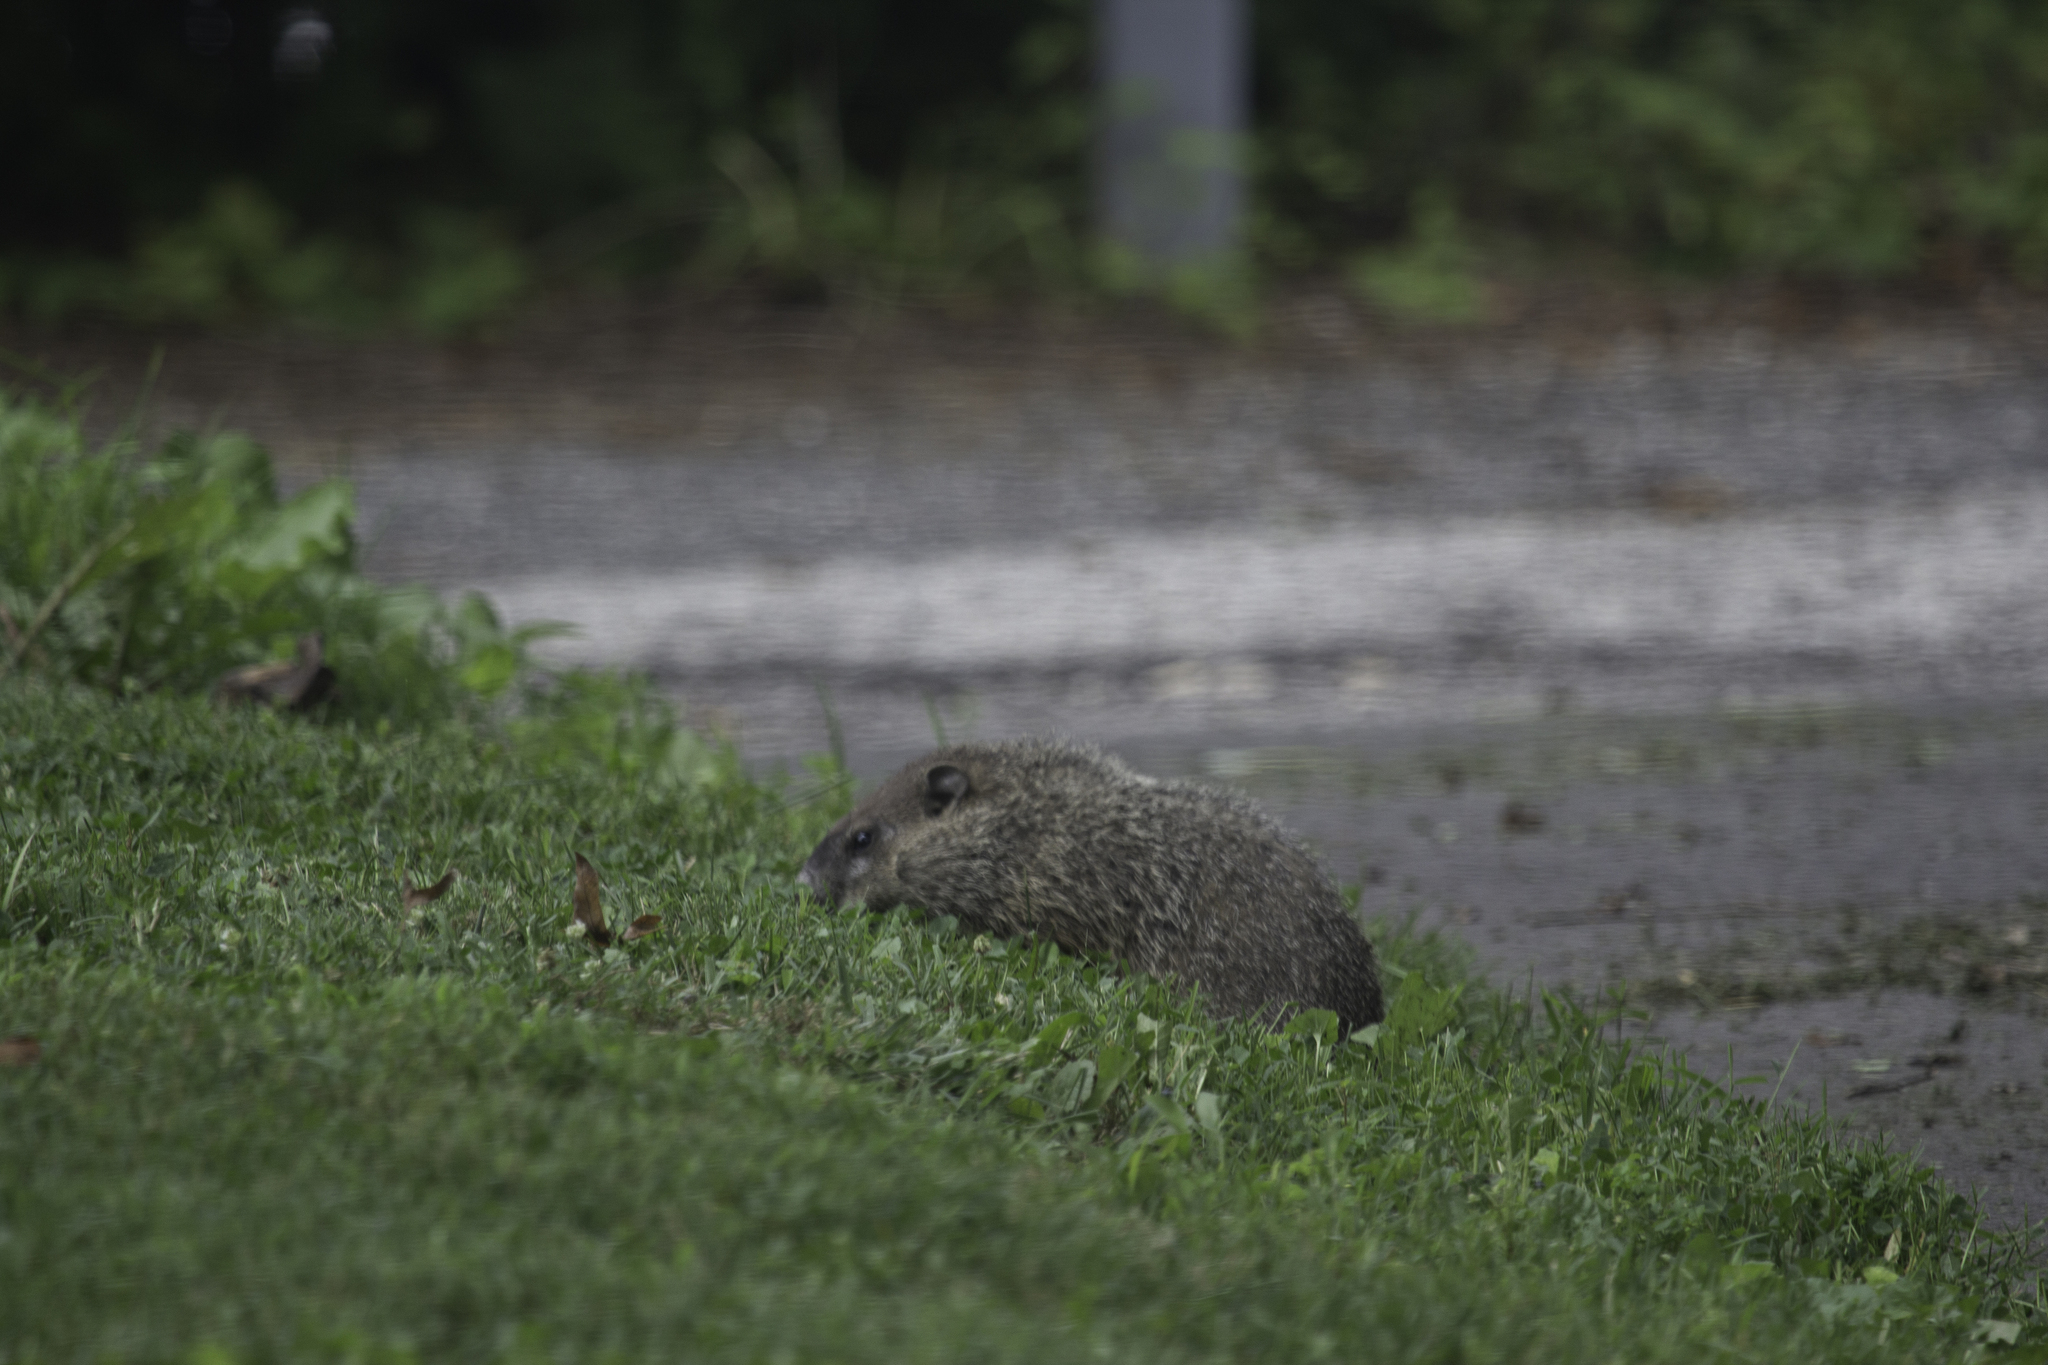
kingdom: Animalia
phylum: Chordata
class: Mammalia
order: Rodentia
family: Sciuridae
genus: Marmota
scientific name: Marmota monax
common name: Groundhog
